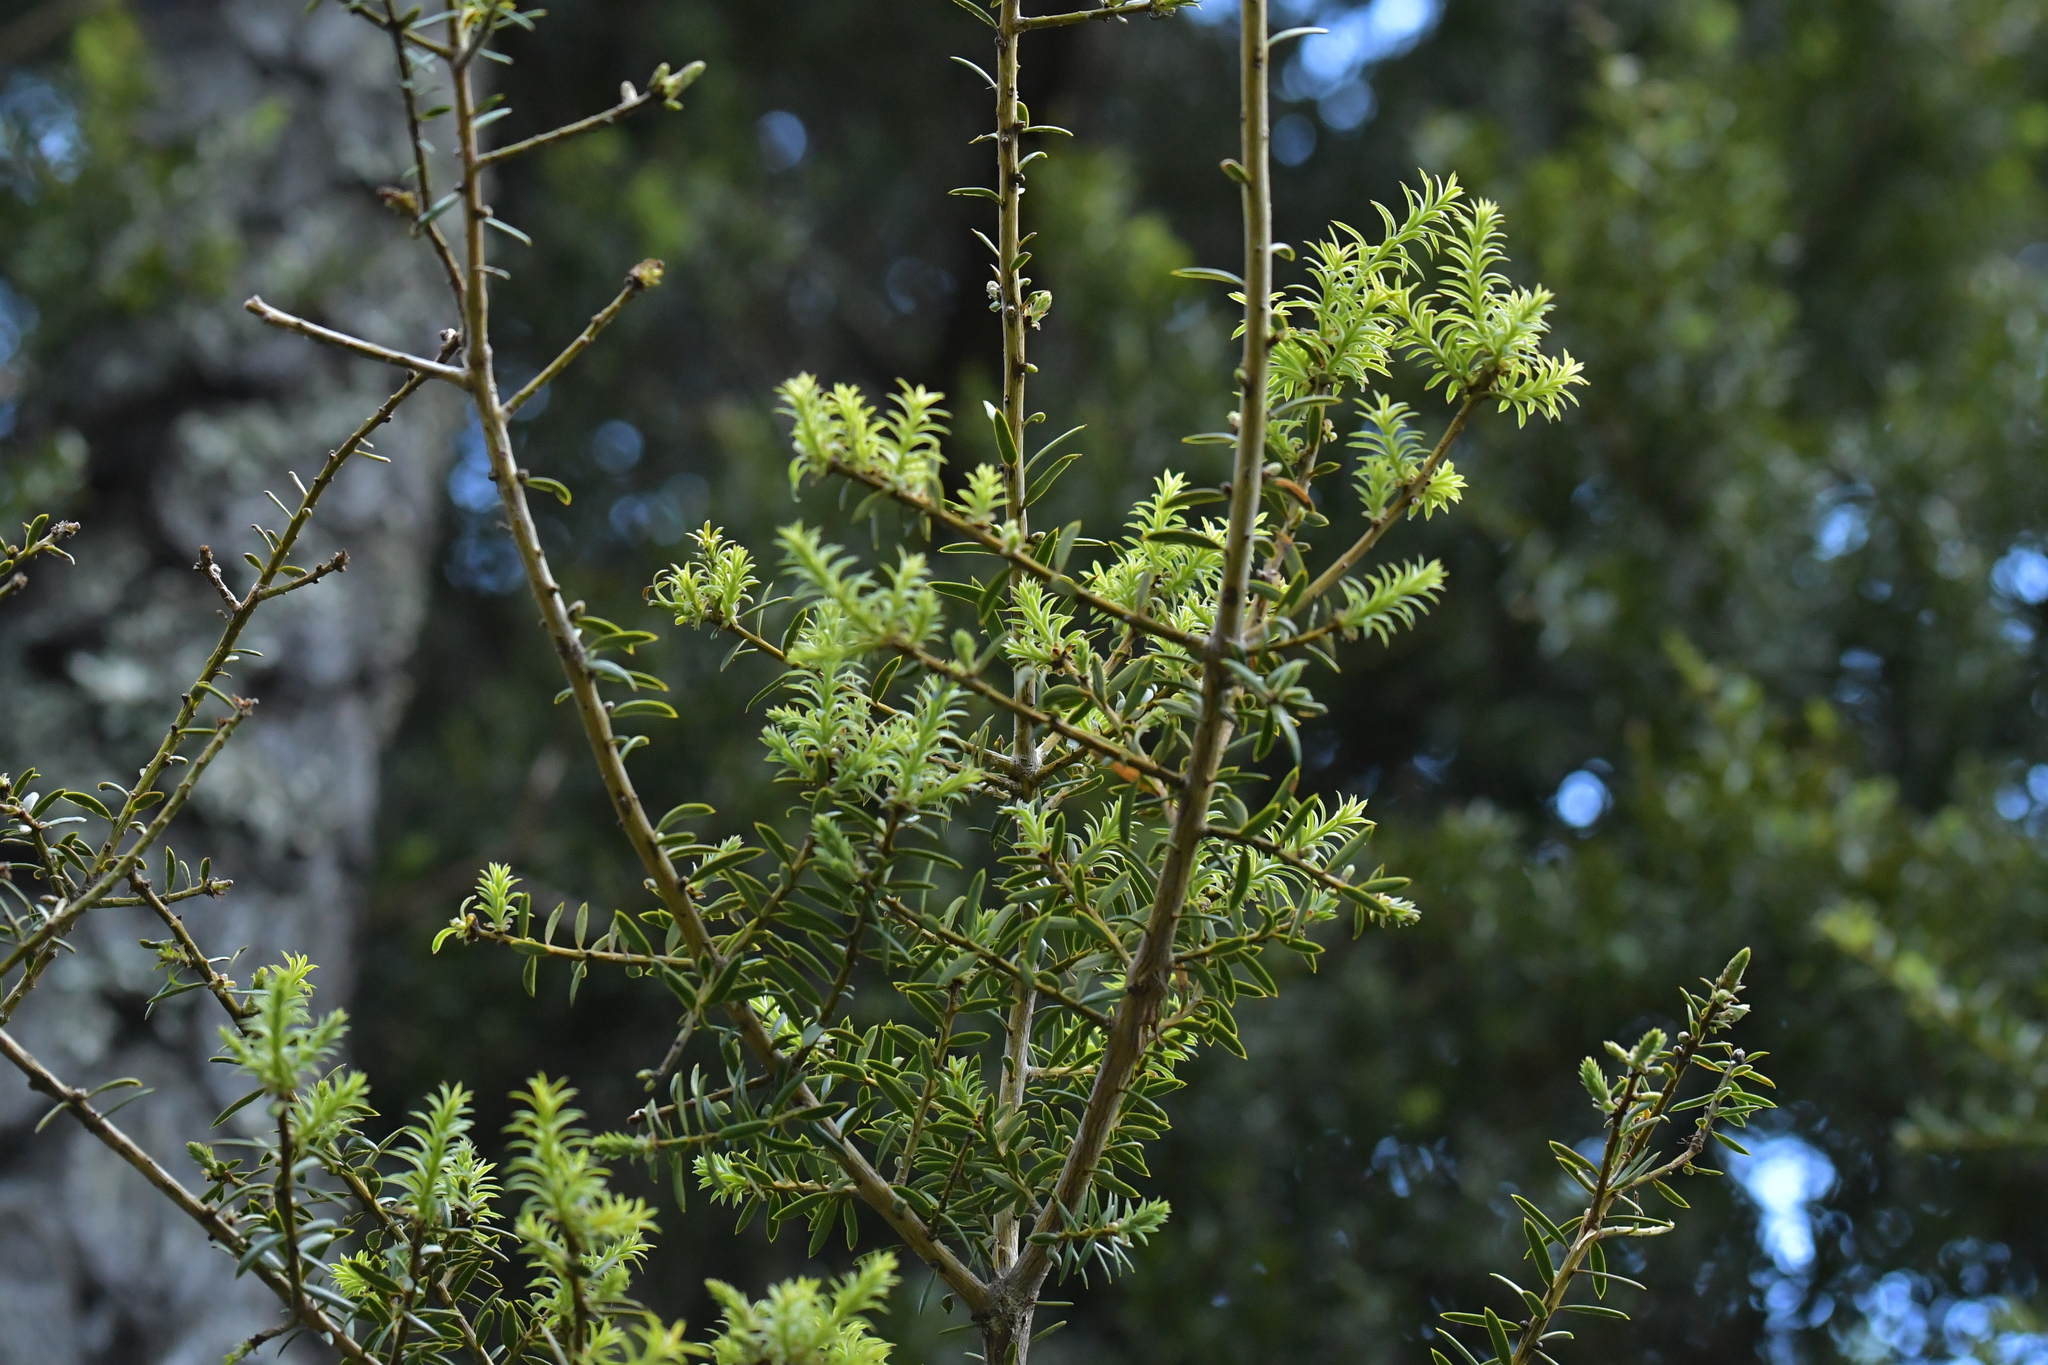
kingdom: Plantae
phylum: Tracheophyta
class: Pinopsida
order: Pinales
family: Podocarpaceae
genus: Podocarpus
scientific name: Podocarpus totara
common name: Totara
